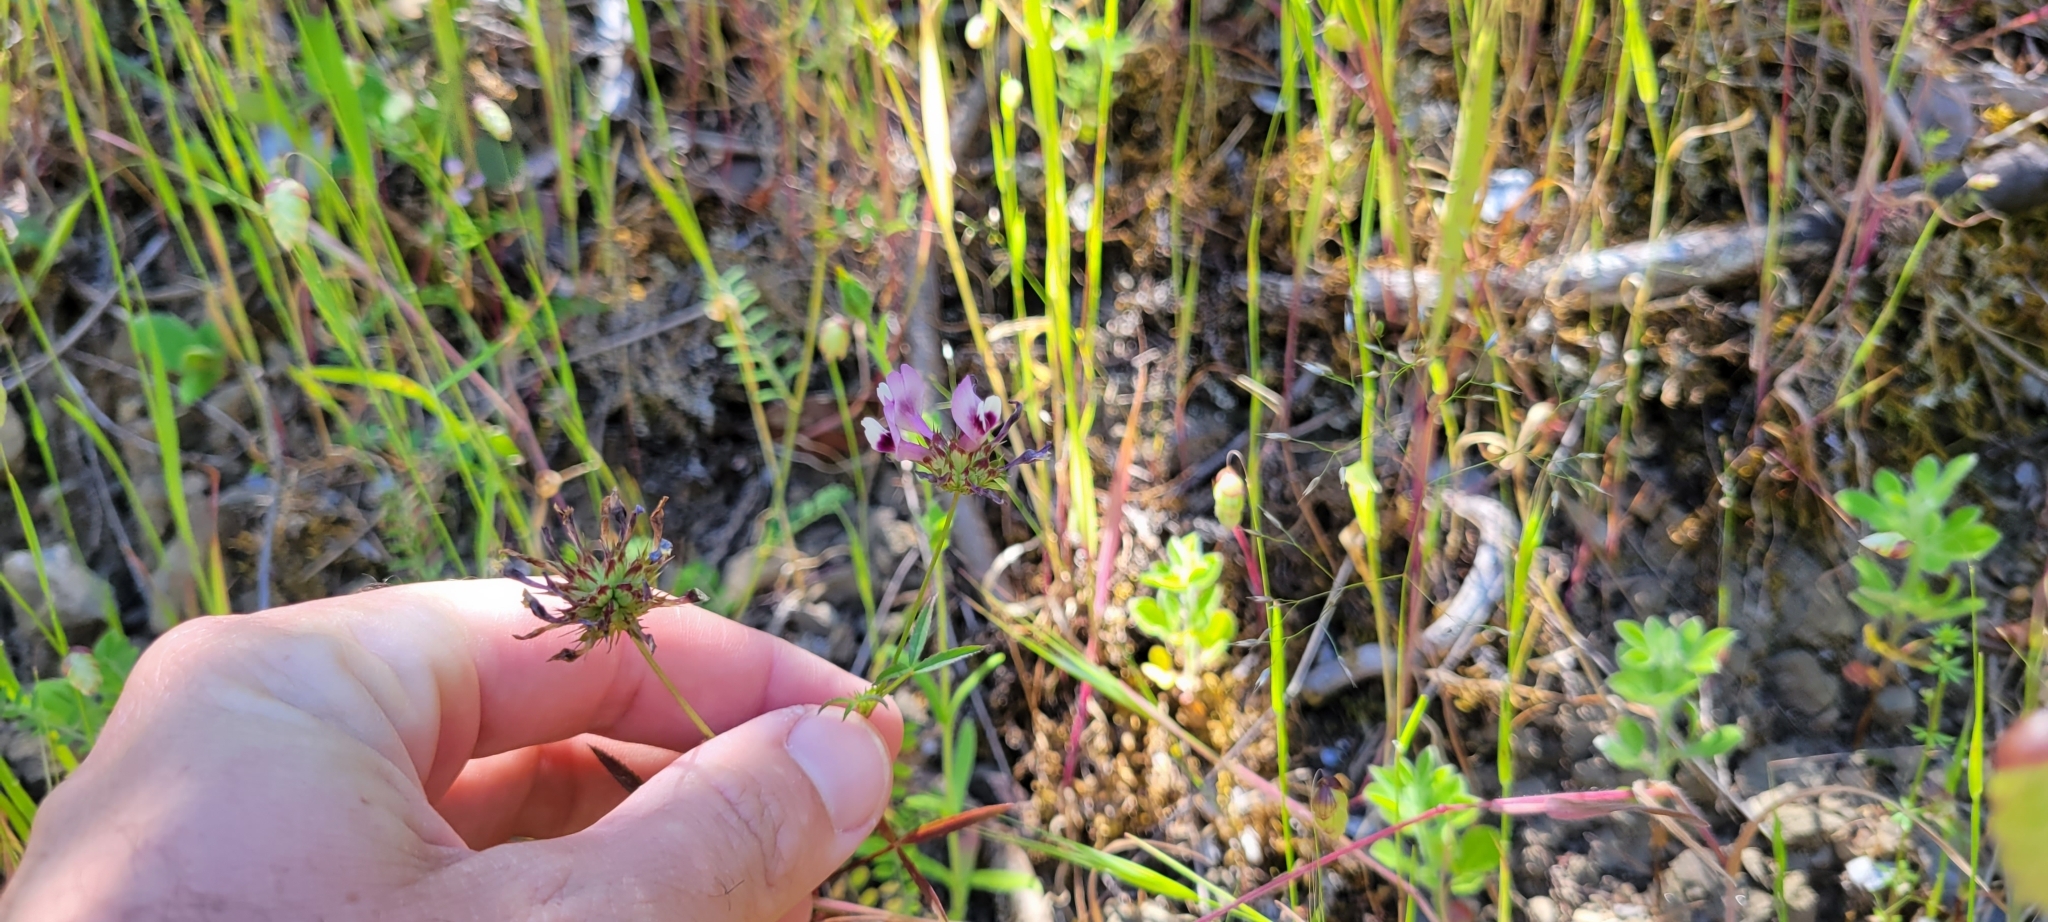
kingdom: Plantae
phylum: Tracheophyta
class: Magnoliopsida
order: Fabales
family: Fabaceae
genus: Trifolium
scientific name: Trifolium willdenovii
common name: Tomcat clover
